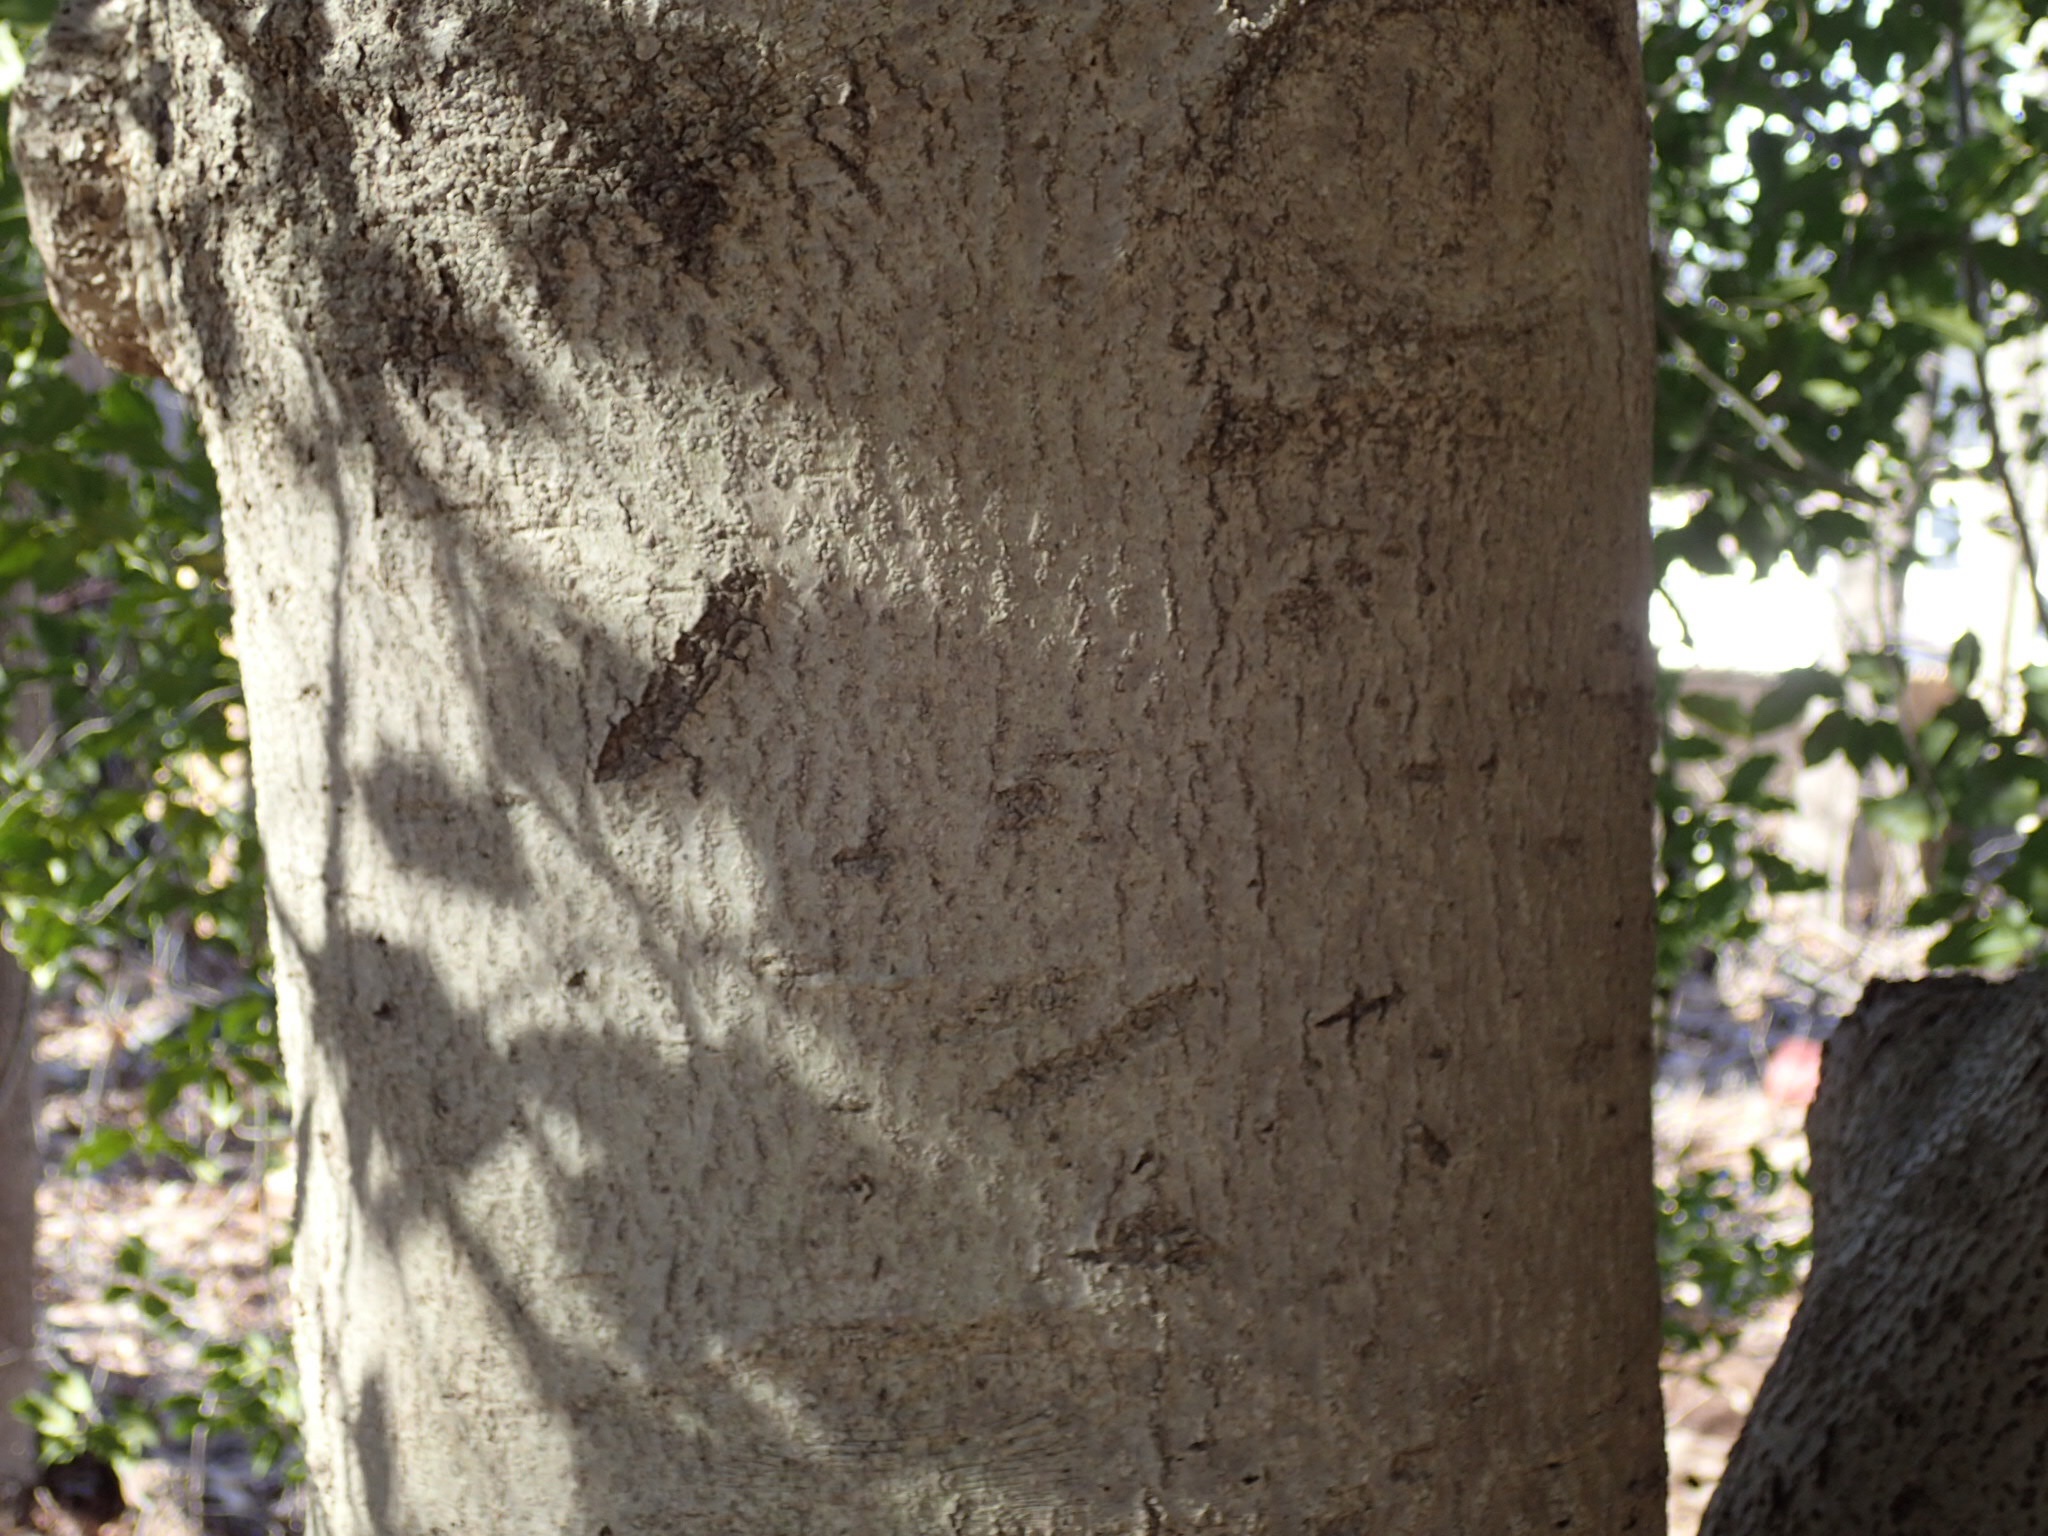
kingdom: Plantae
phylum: Tracheophyta
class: Magnoliopsida
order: Aquifoliales
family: Aquifoliaceae
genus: Ilex
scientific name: Ilex opaca
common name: American holly
